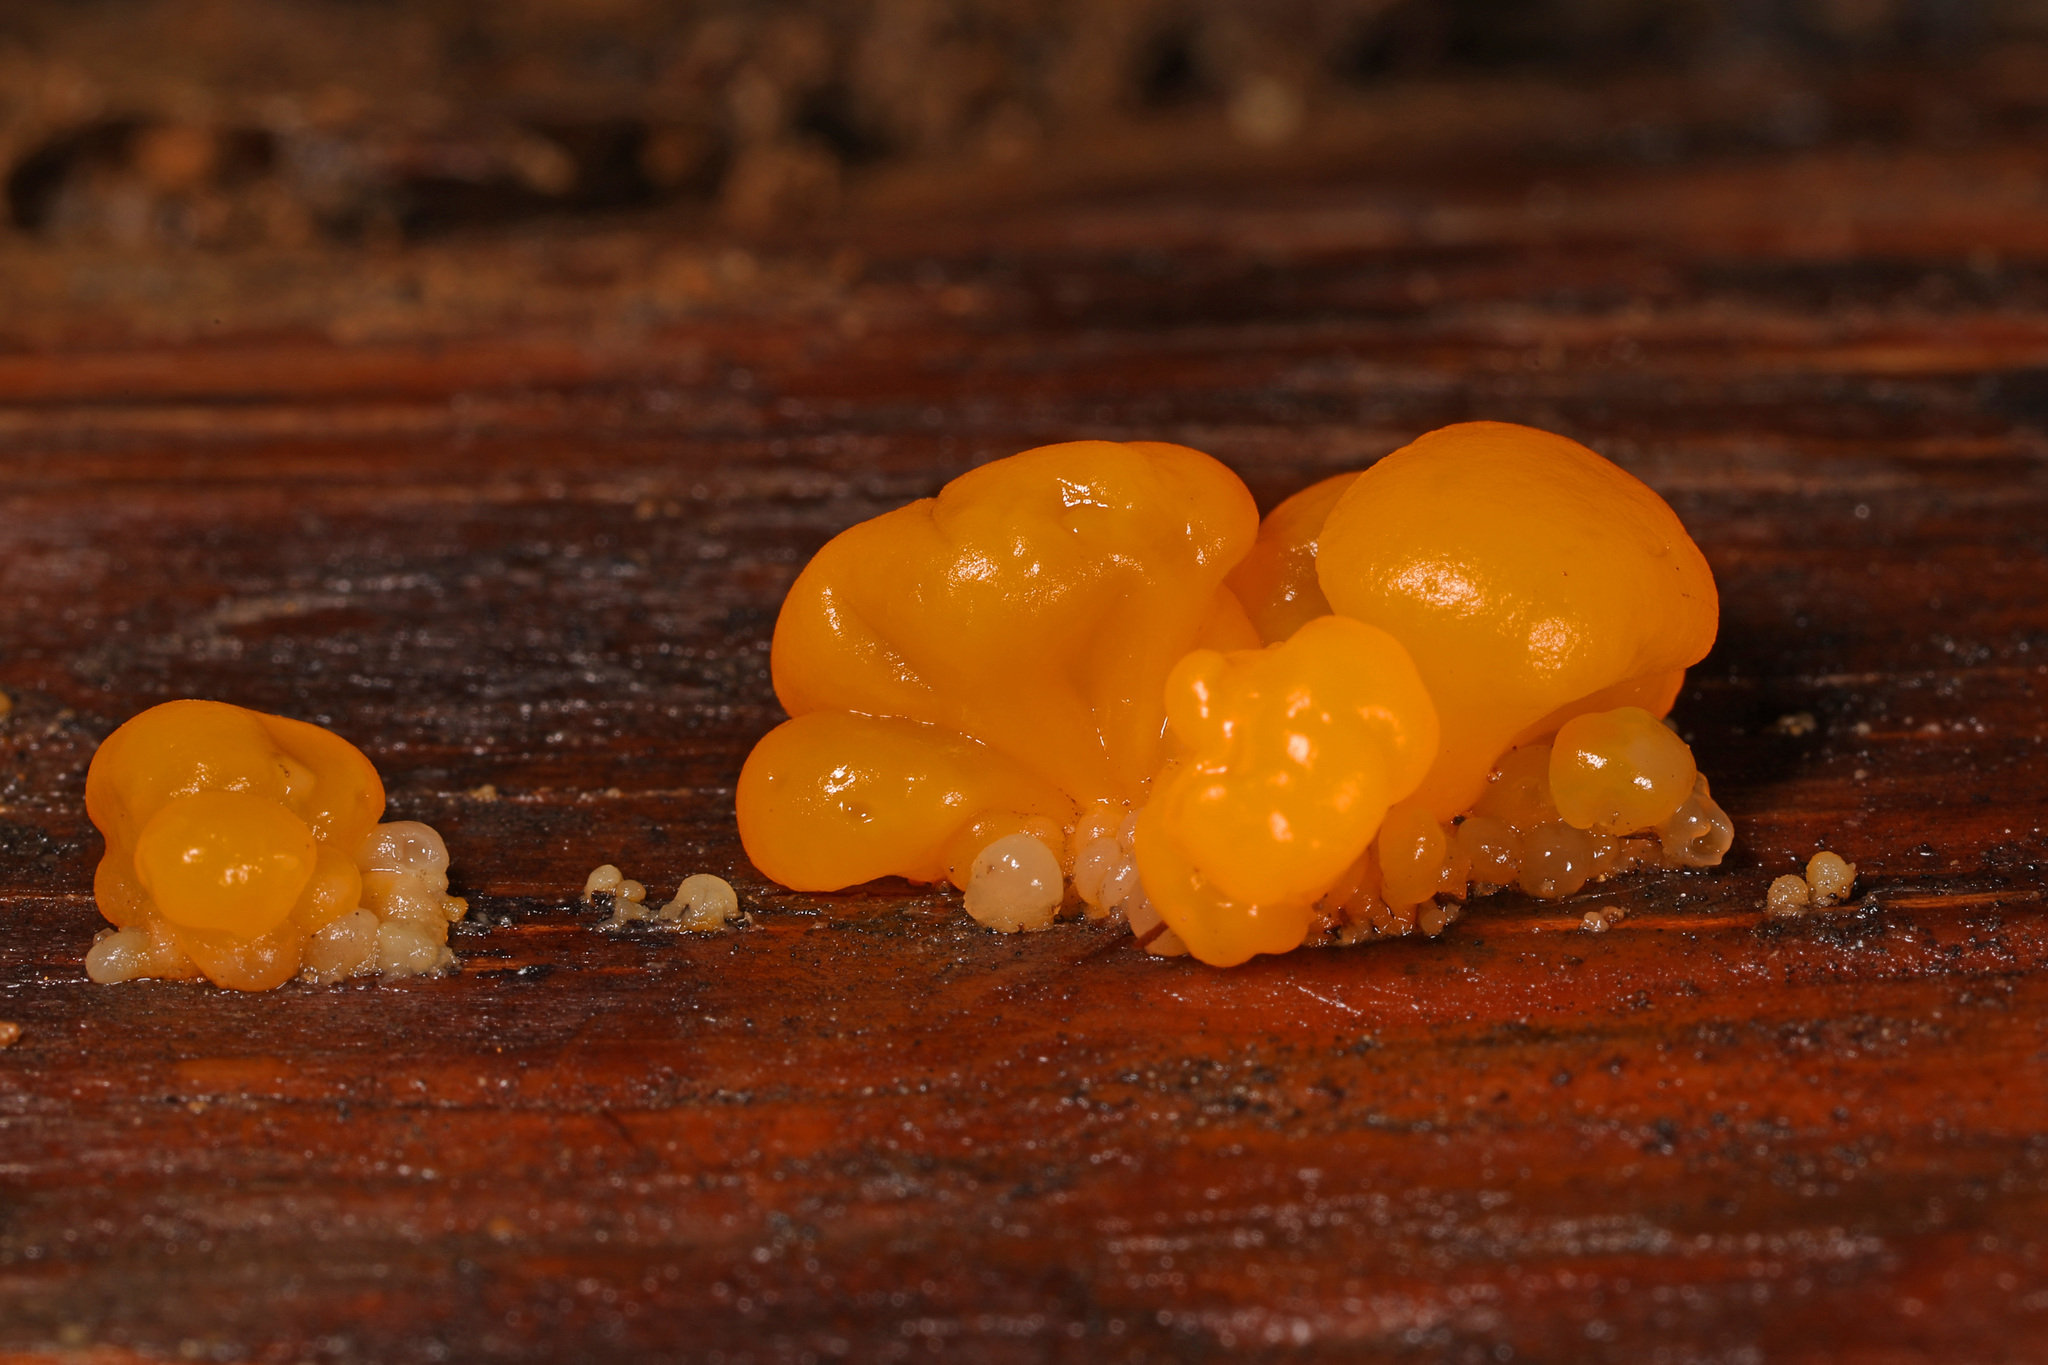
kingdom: Fungi
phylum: Basidiomycota
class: Dacrymycetes
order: Dacrymycetales
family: Dacrymycetaceae
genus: Dacrymyces
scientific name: Dacrymyces chrysospermus
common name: Orange jelly spot
